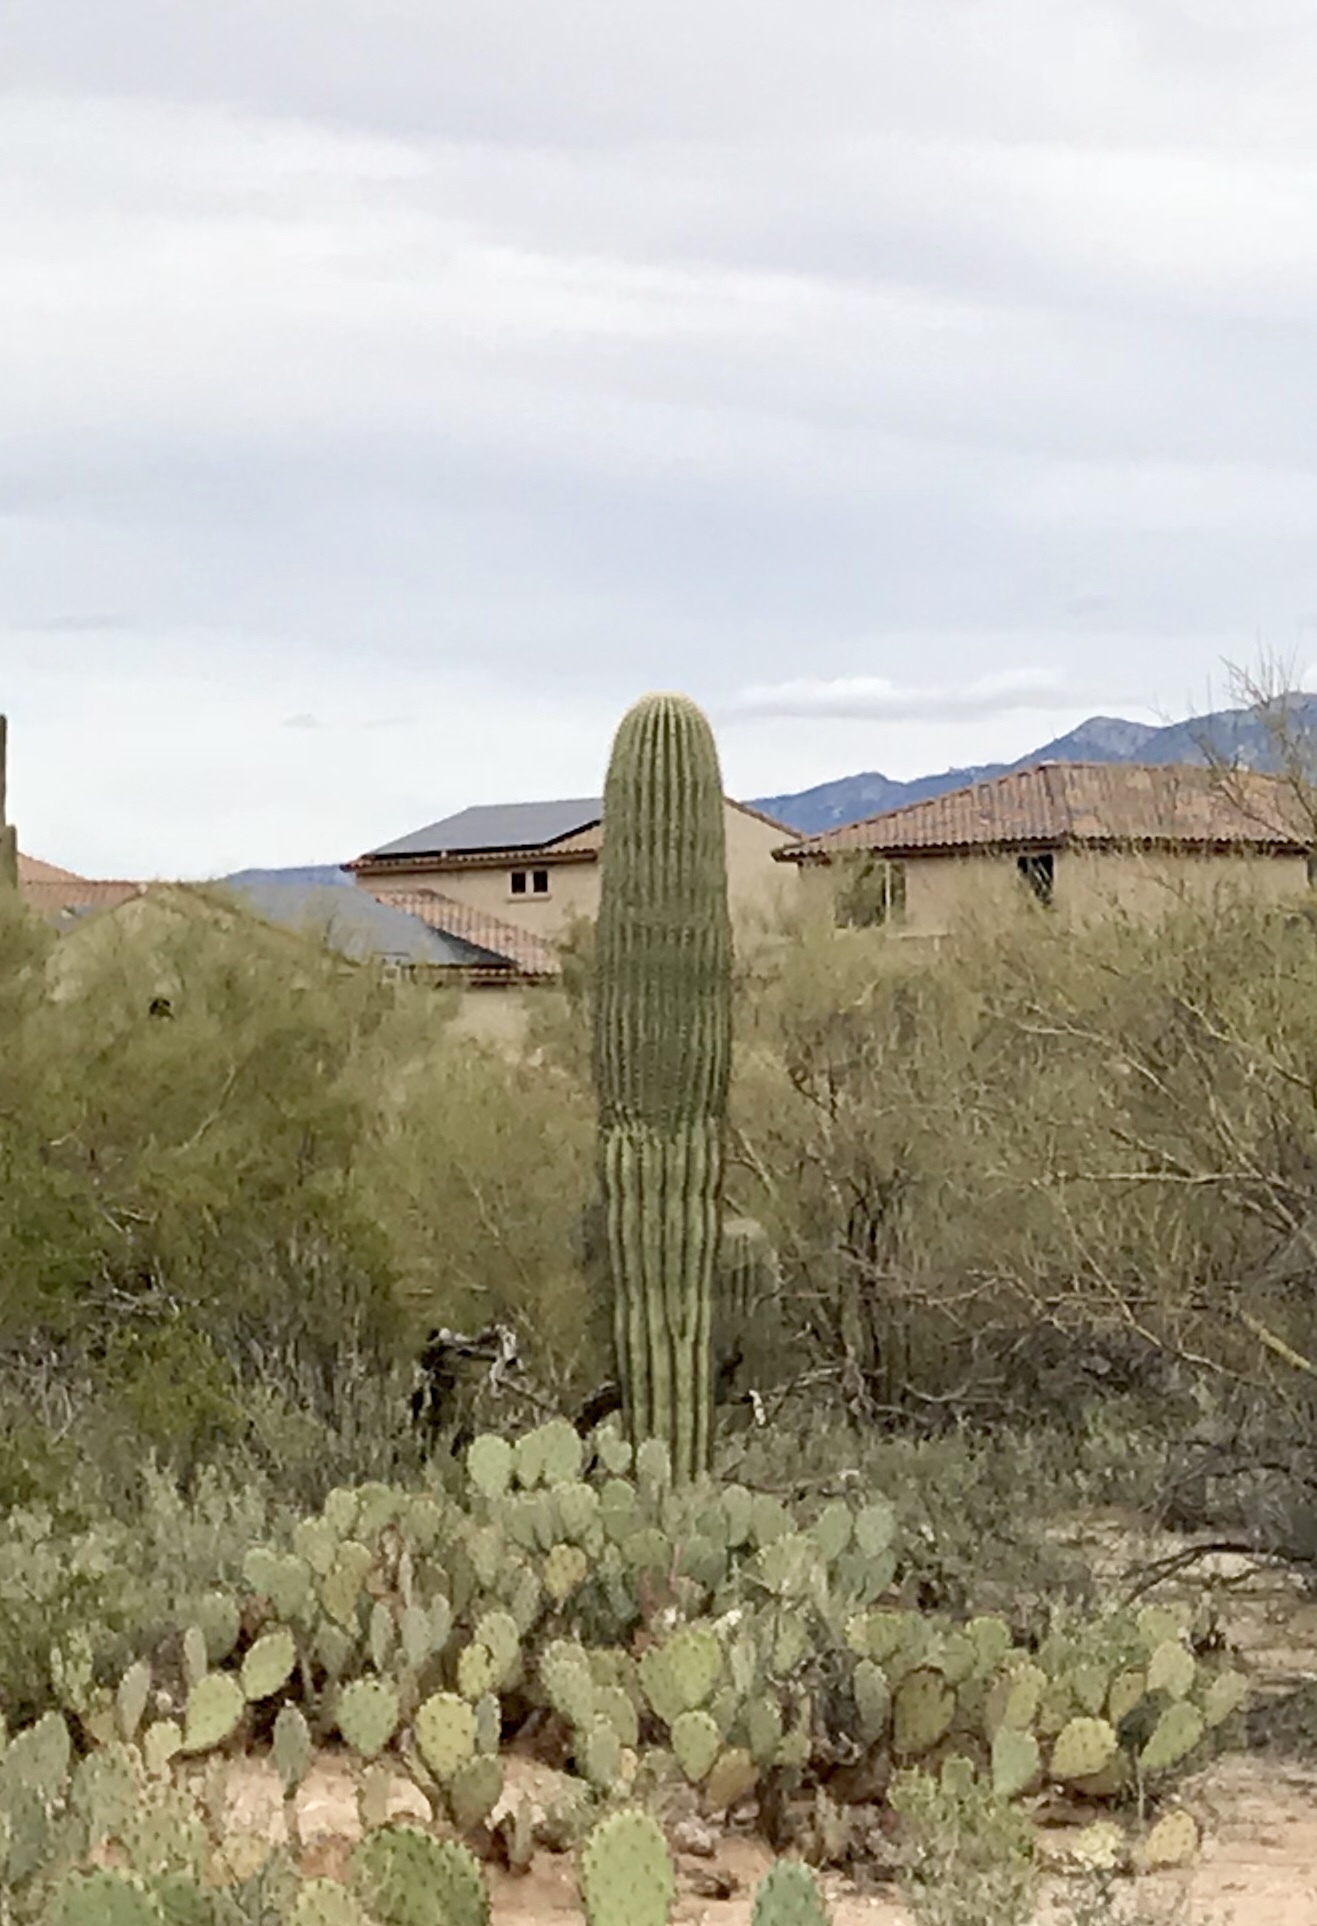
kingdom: Plantae
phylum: Tracheophyta
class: Magnoliopsida
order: Caryophyllales
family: Cactaceae
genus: Carnegiea
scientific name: Carnegiea gigantea
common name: Saguaro
